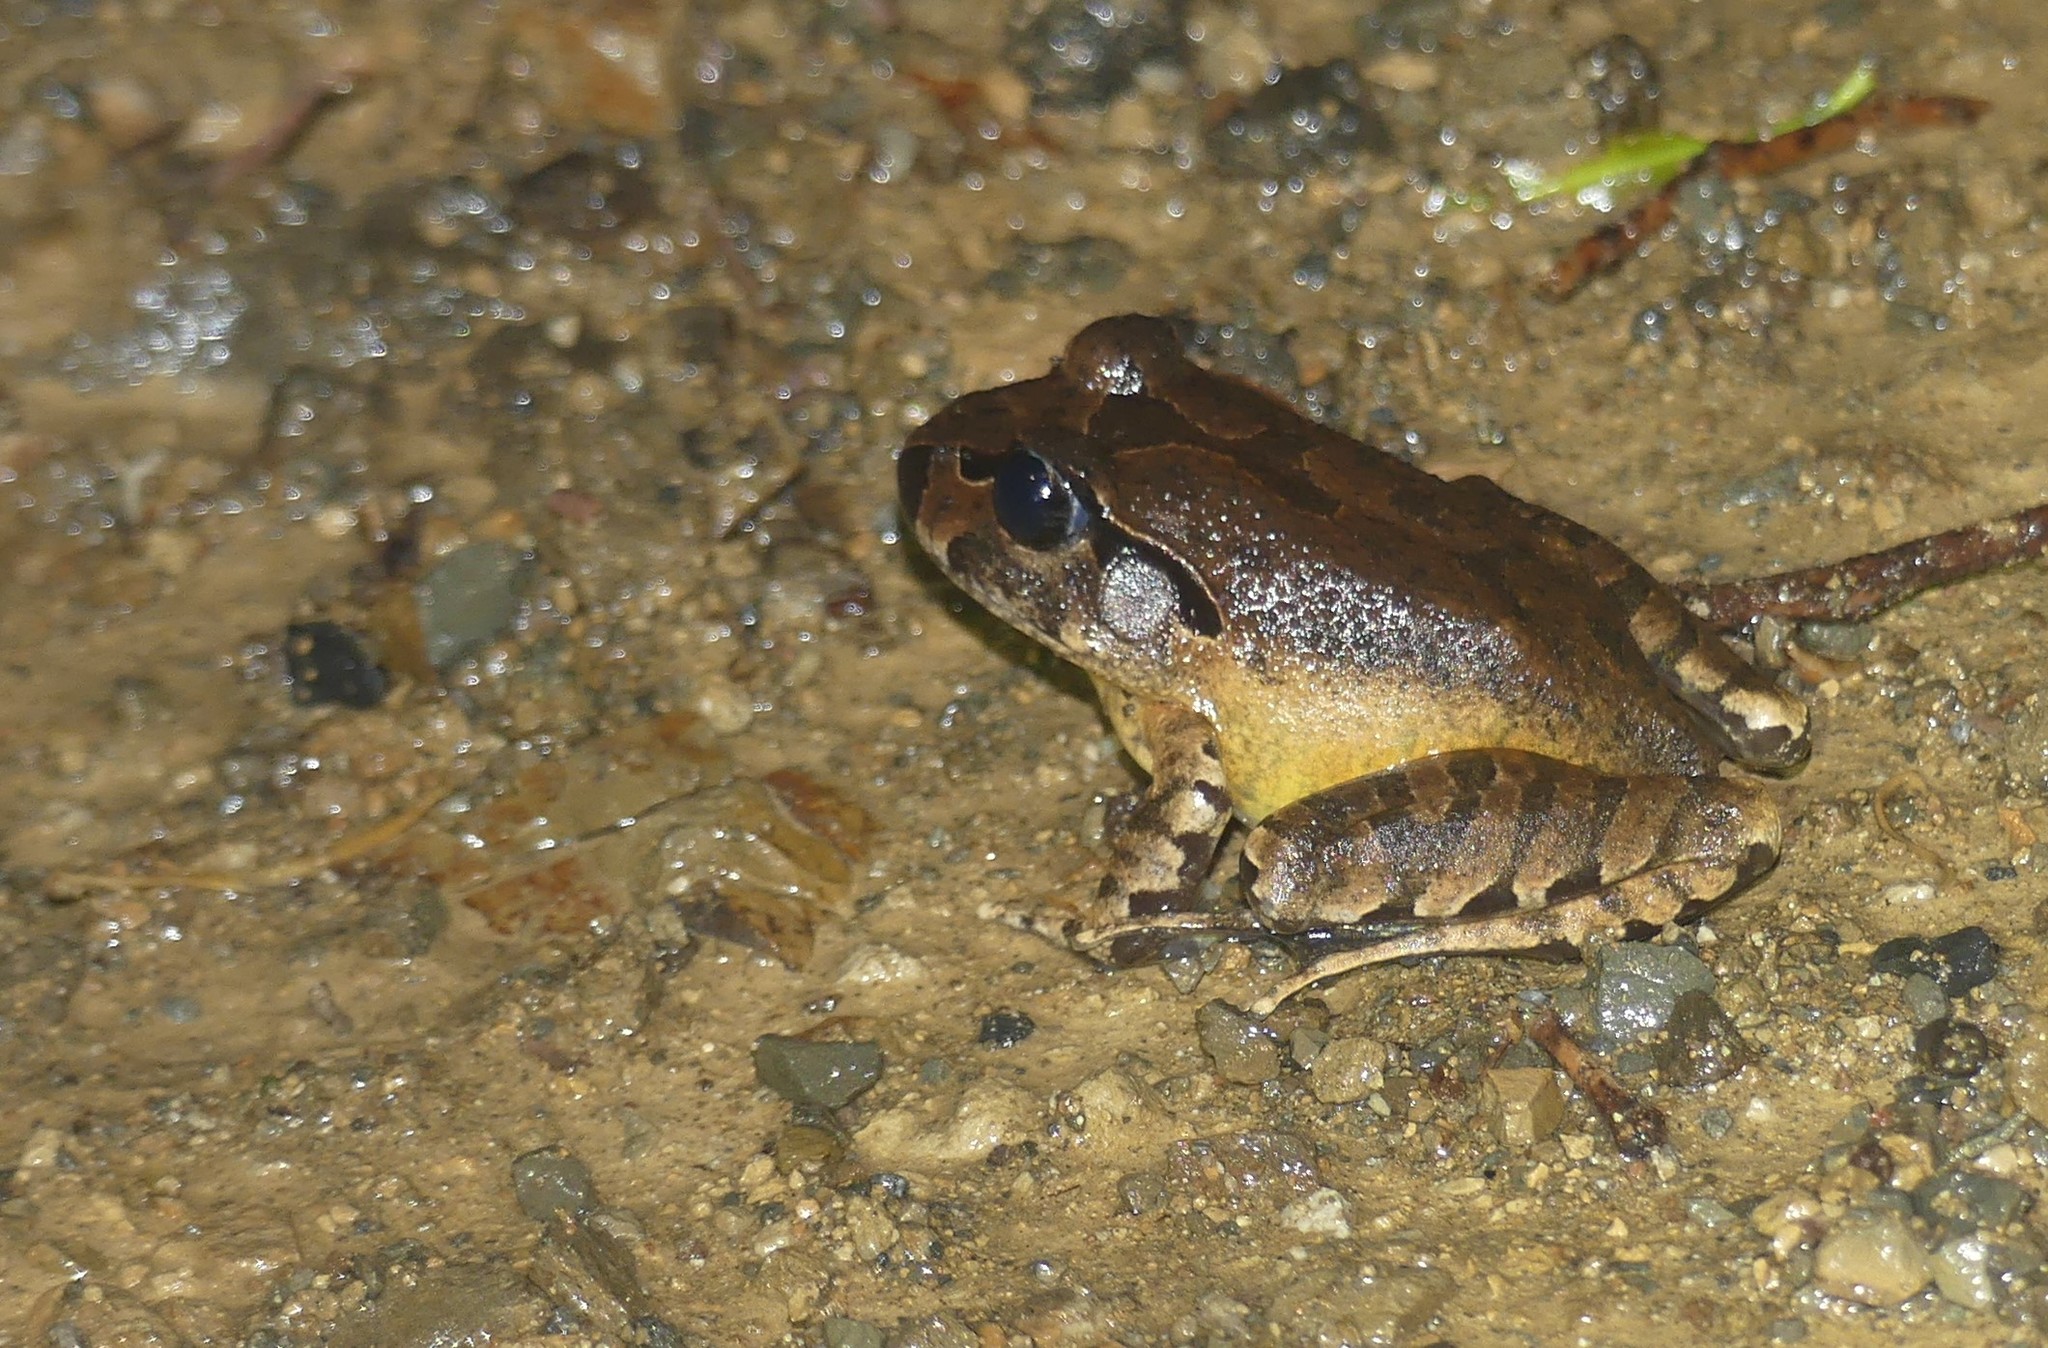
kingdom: Animalia
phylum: Chordata
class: Amphibia
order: Anura
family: Myobatrachidae
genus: Mixophyes
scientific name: Mixophyes australis
